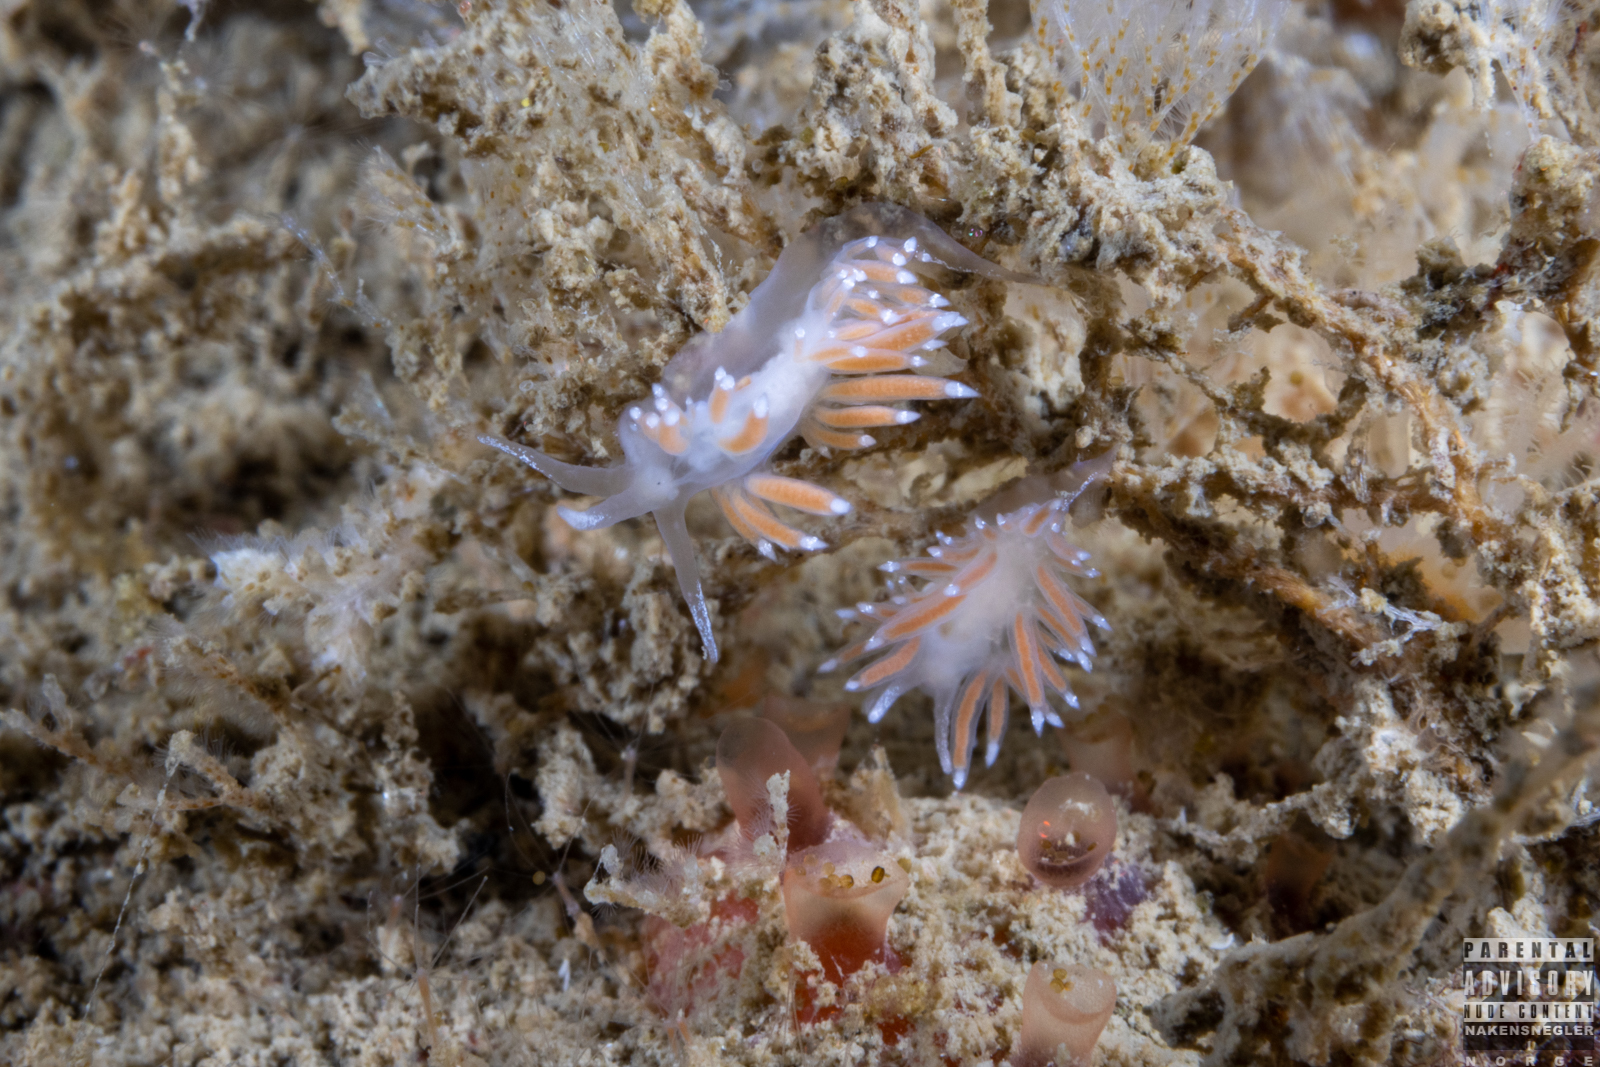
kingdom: Animalia
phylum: Mollusca
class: Gastropoda
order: Nudibranchia
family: Coryphellidae
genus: Coryphella
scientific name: Coryphella gracilis
